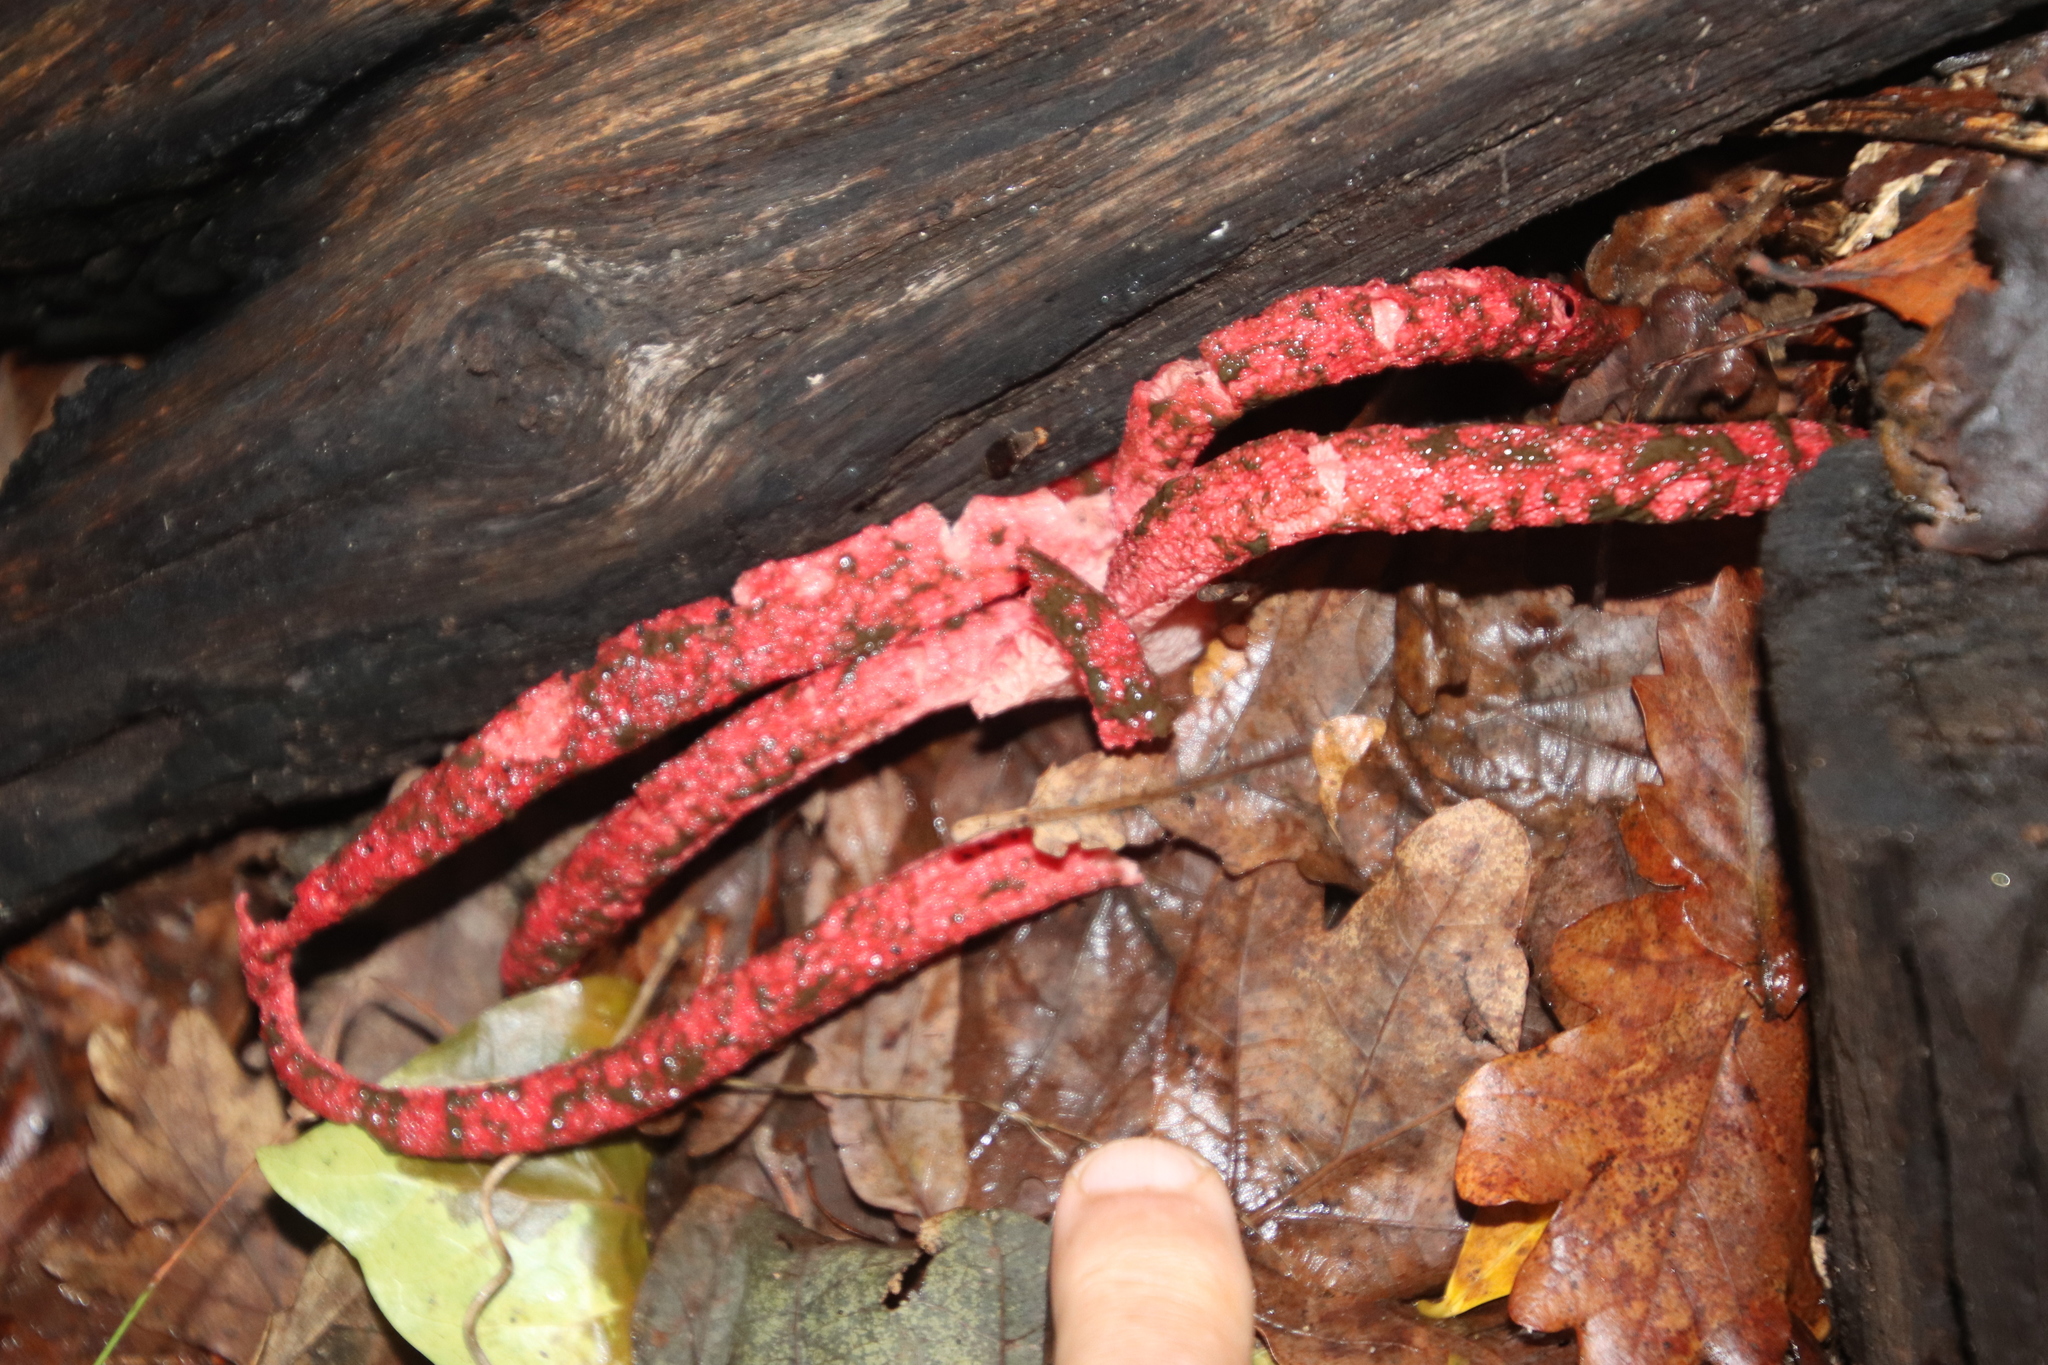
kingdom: Fungi
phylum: Basidiomycota
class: Agaricomycetes
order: Phallales
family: Phallaceae
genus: Clathrus
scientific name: Clathrus archeri
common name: Devil's fingers
